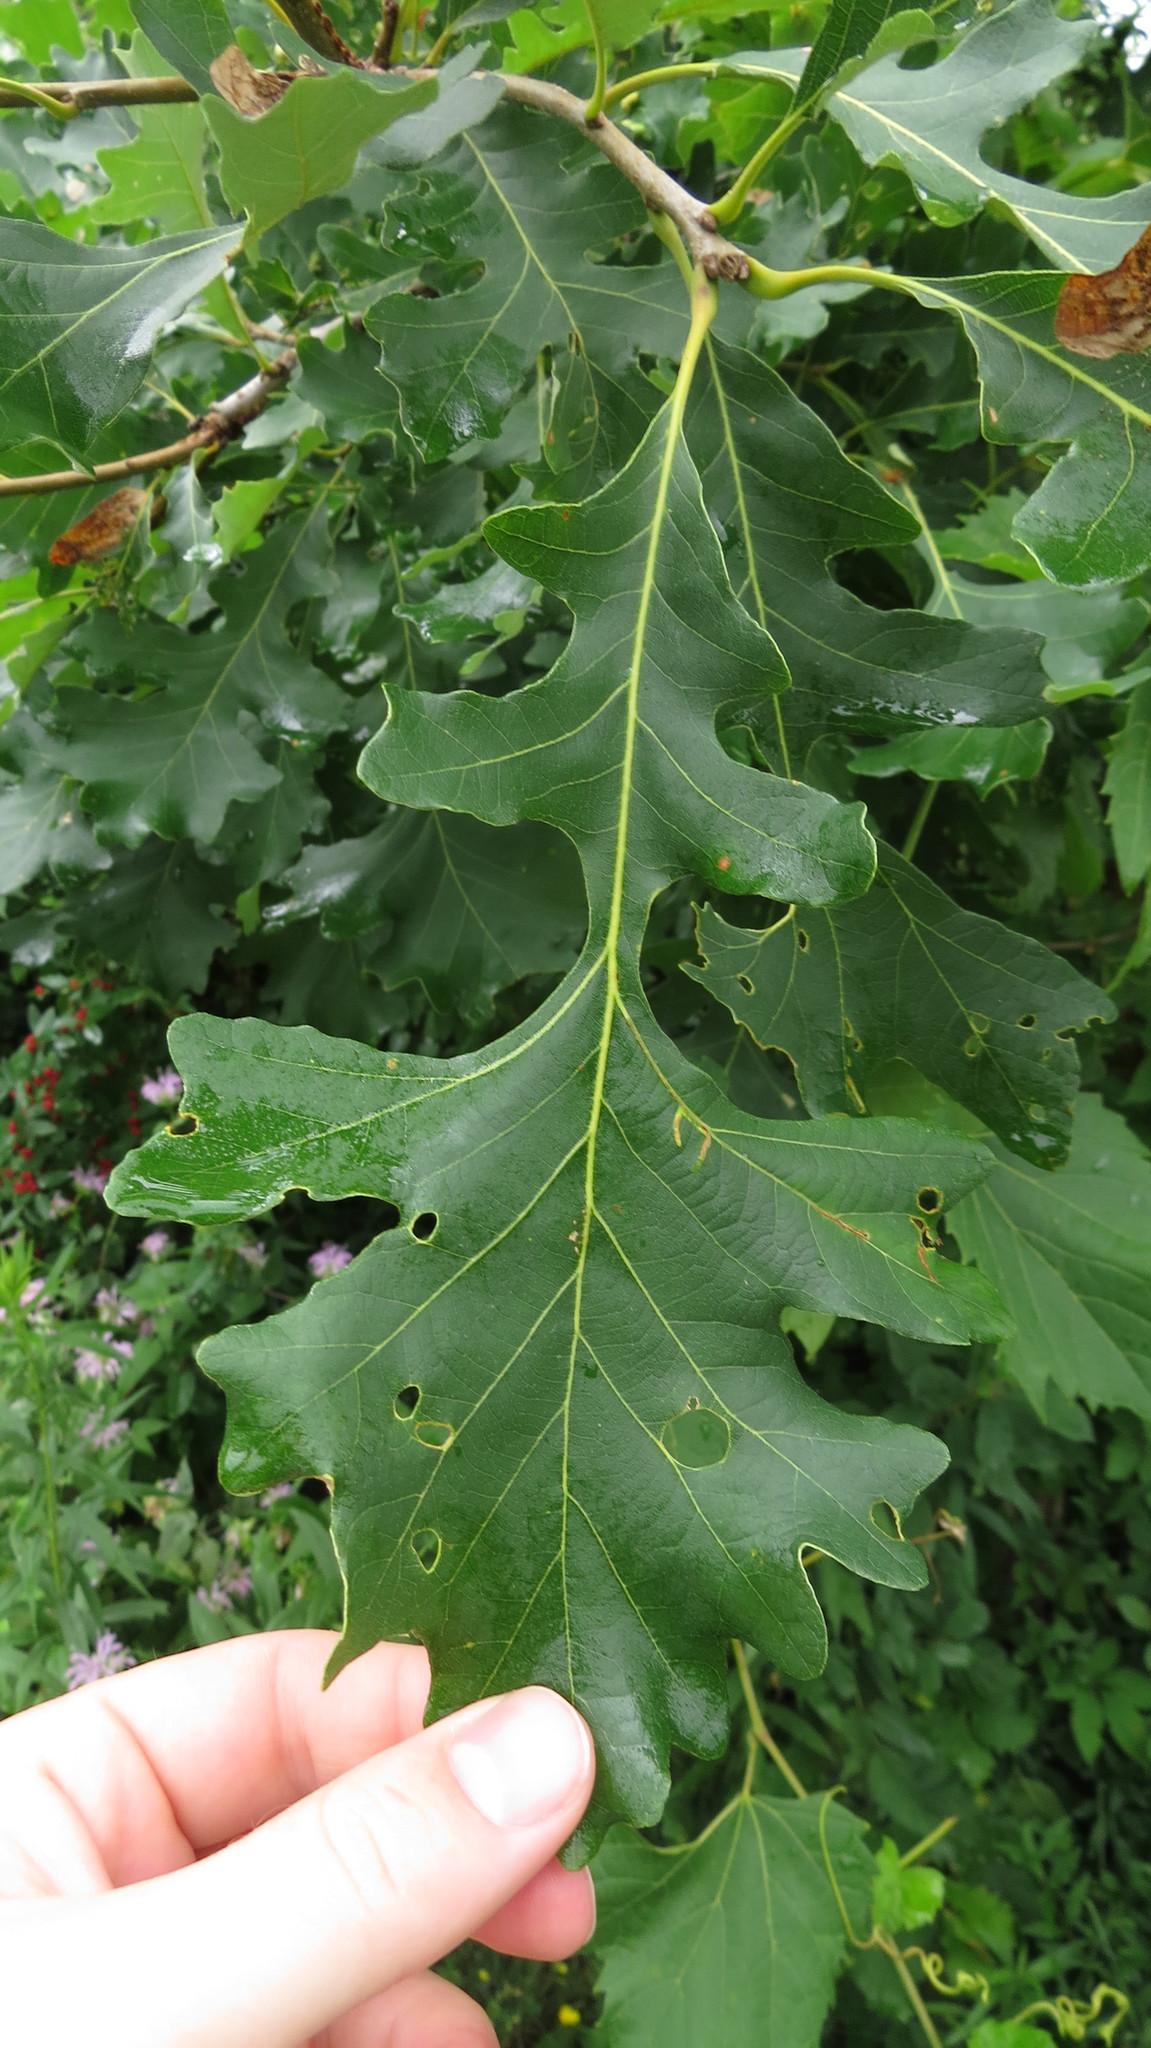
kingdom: Plantae
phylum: Tracheophyta
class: Magnoliopsida
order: Fagales
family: Fagaceae
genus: Quercus
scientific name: Quercus macrocarpa
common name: Bur oak
